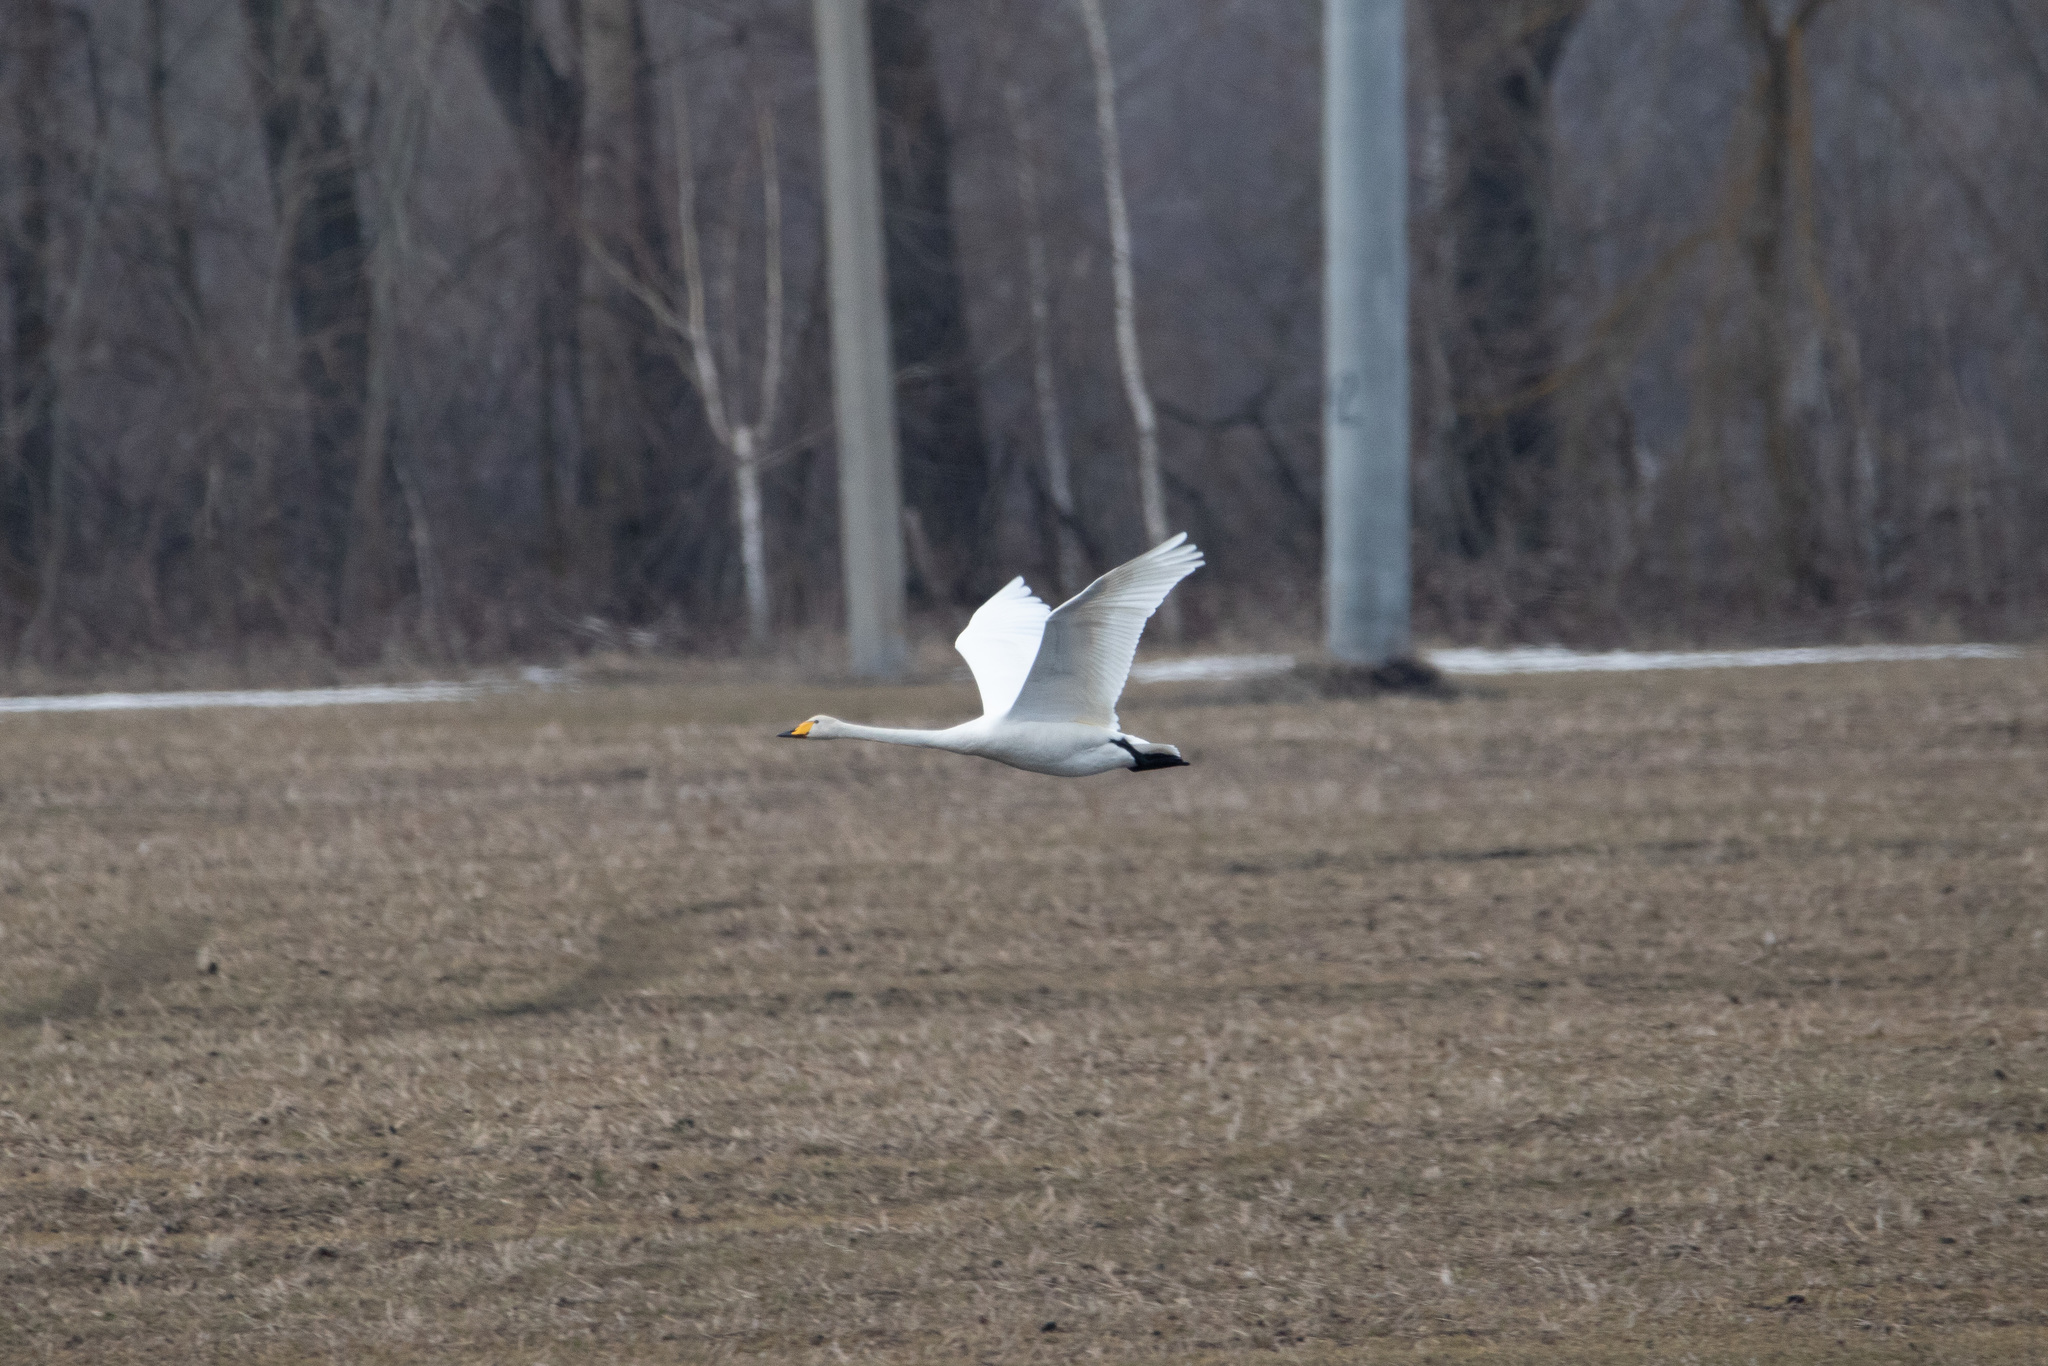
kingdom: Animalia
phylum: Chordata
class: Aves
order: Anseriformes
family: Anatidae
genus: Cygnus
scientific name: Cygnus cygnus
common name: Whooper swan
